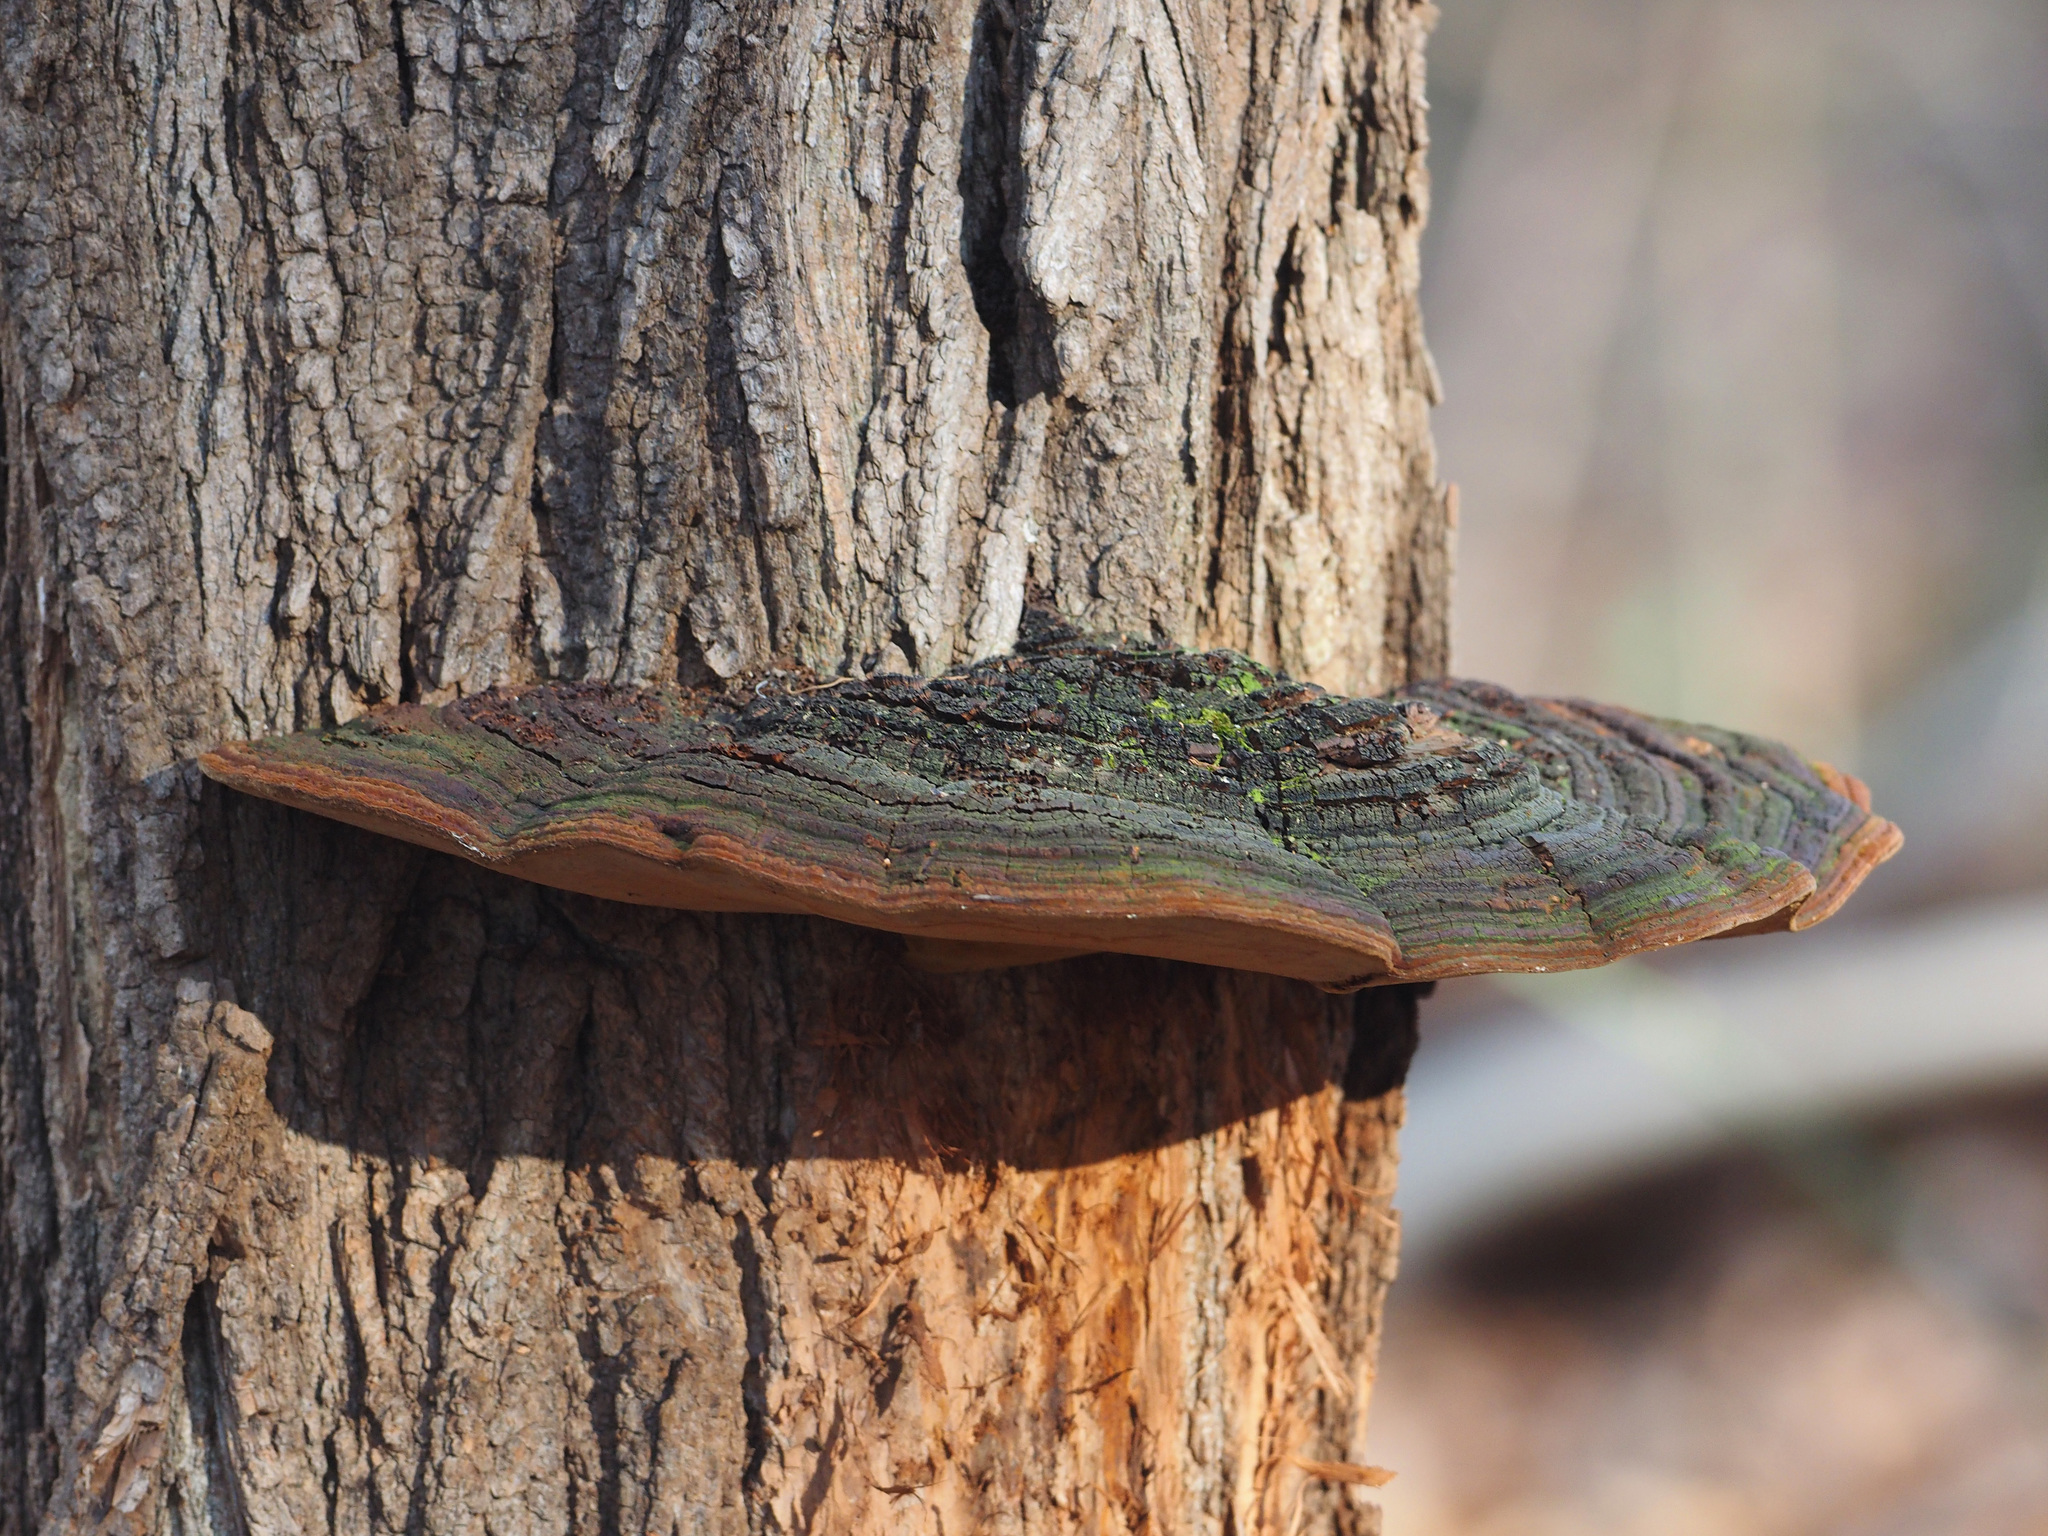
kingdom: Fungi
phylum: Basidiomycota
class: Agaricomycetes
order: Hymenochaetales
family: Hymenochaetaceae
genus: Phellinus
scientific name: Phellinus robiniae
